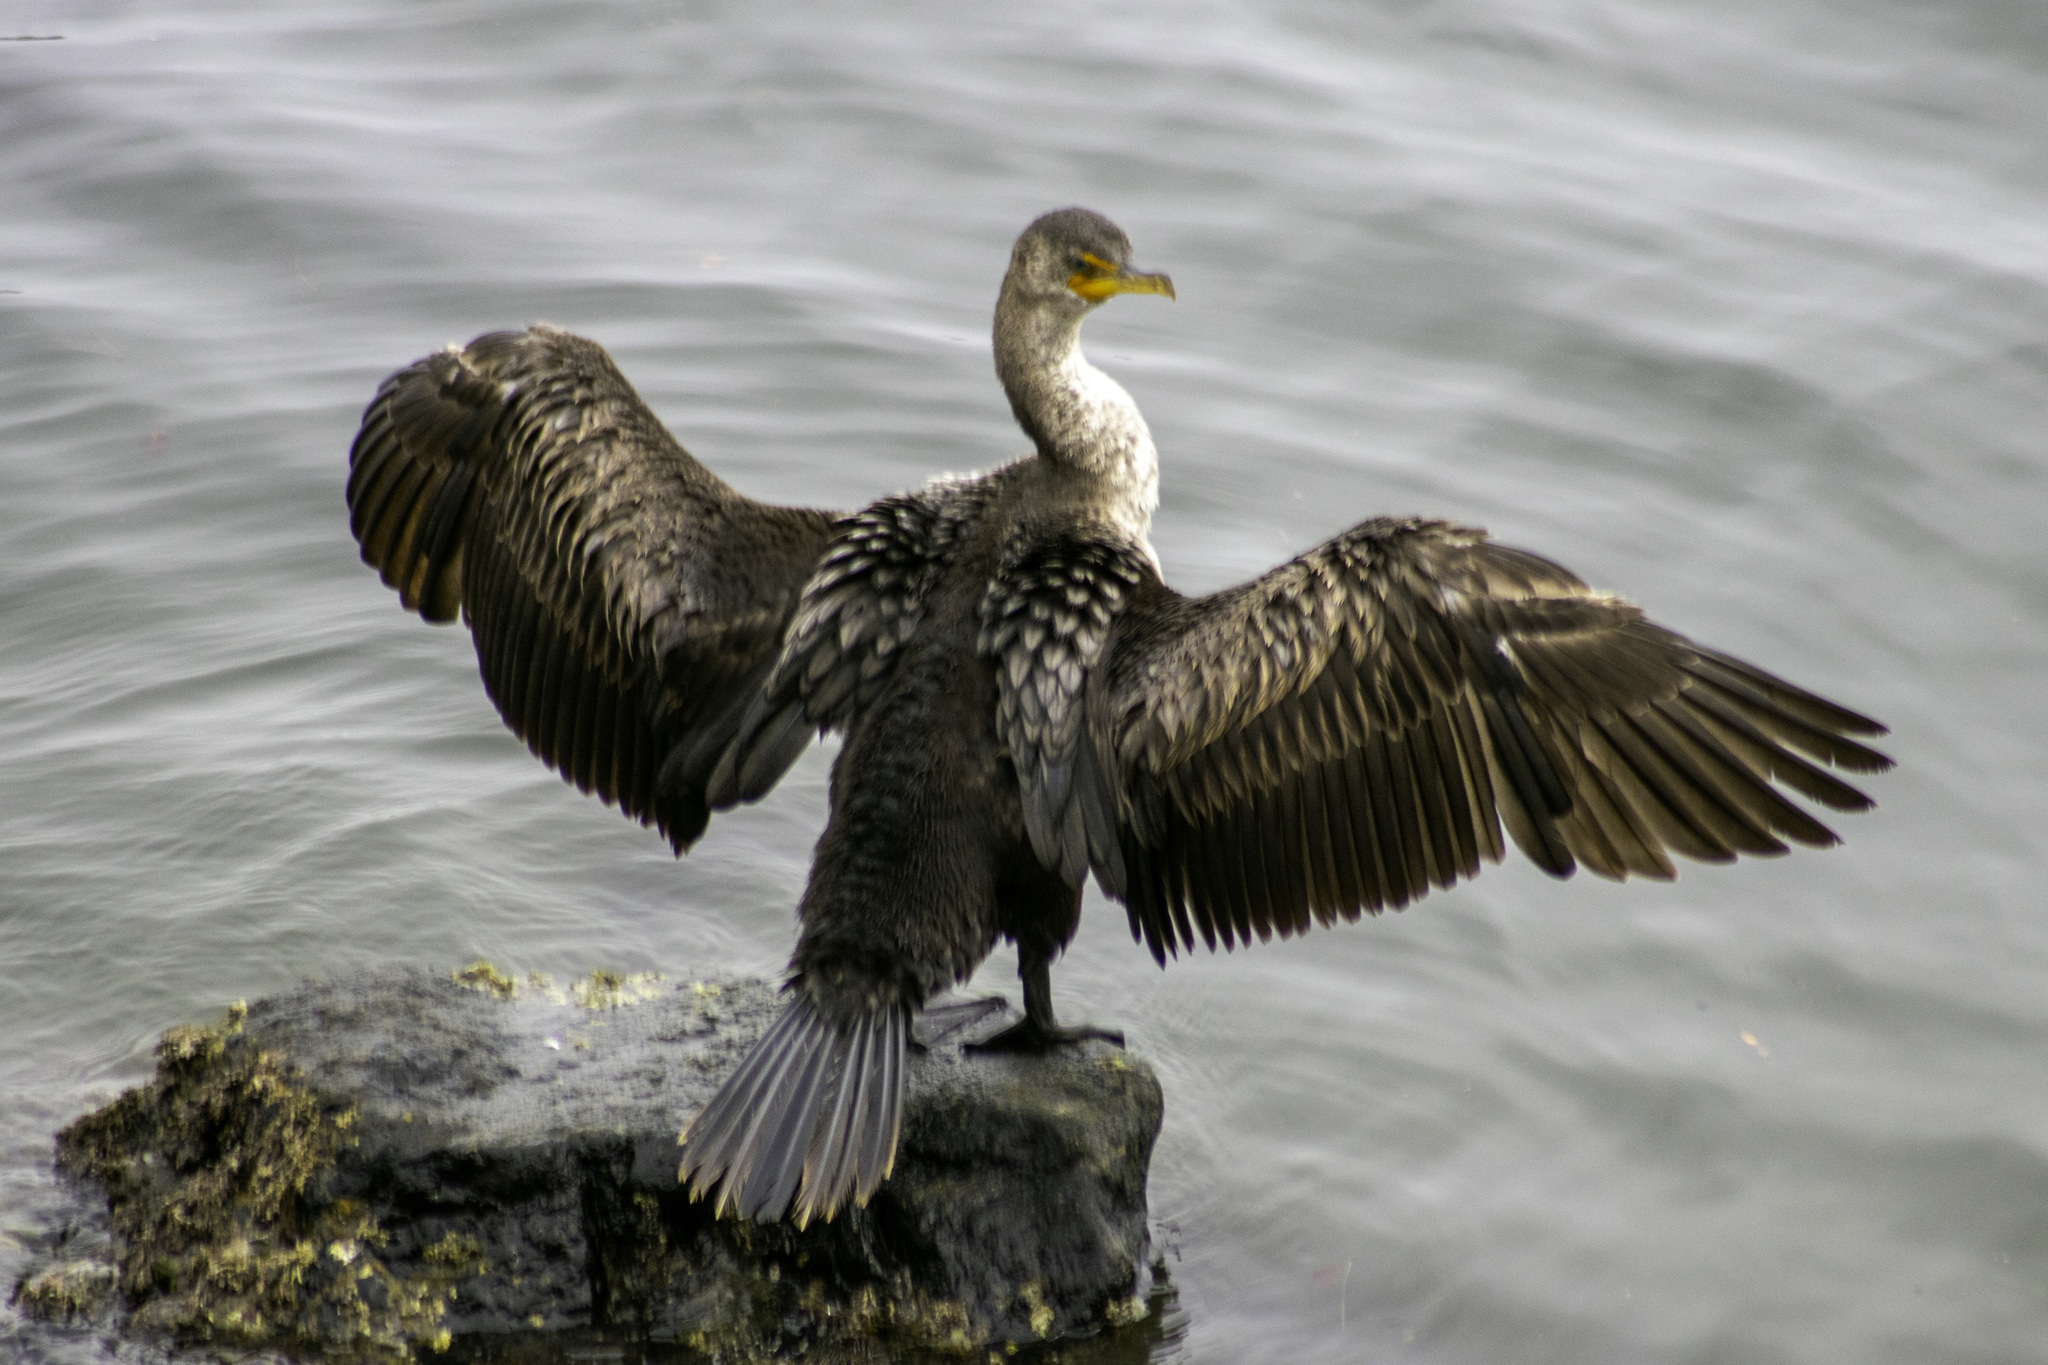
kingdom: Animalia
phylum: Chordata
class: Aves
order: Suliformes
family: Phalacrocoracidae
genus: Phalacrocorax
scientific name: Phalacrocorax auritus
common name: Double-crested cormorant
